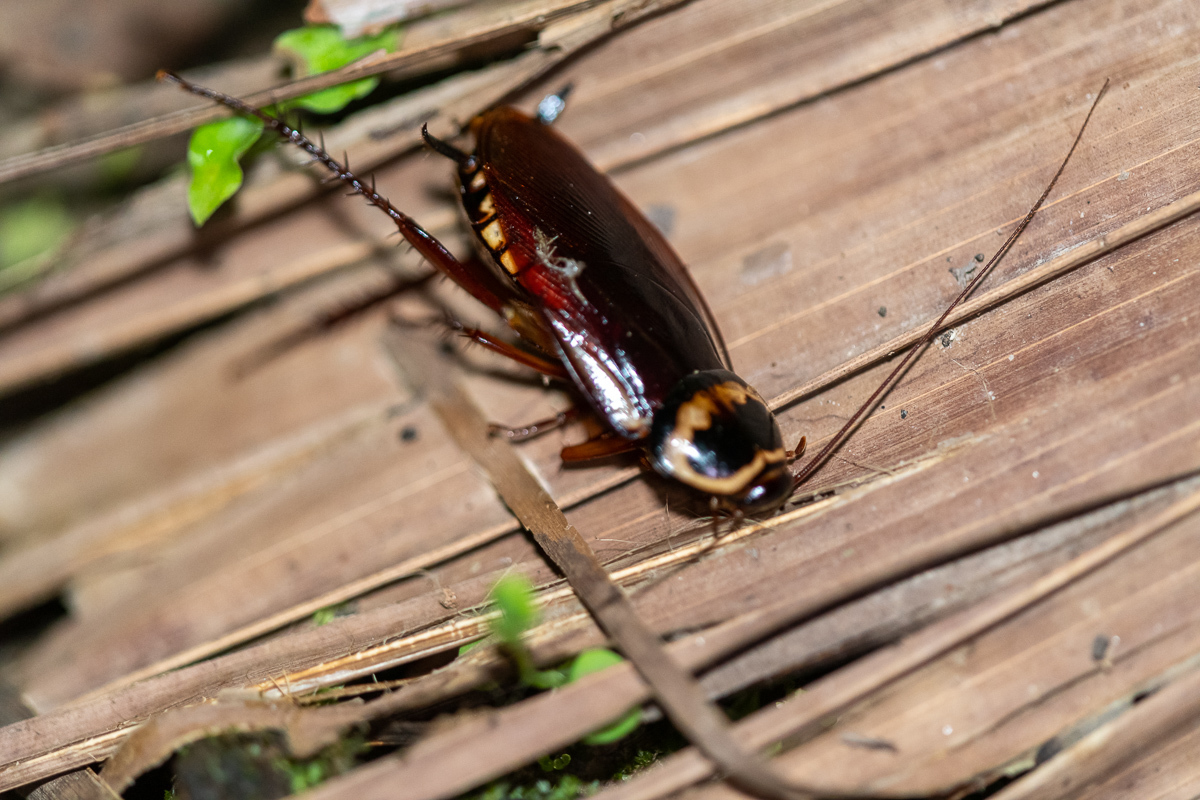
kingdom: Animalia
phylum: Arthropoda
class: Insecta
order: Blattodea
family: Blattidae
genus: Periplaneta
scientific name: Periplaneta australasiae
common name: Australian cockroach
